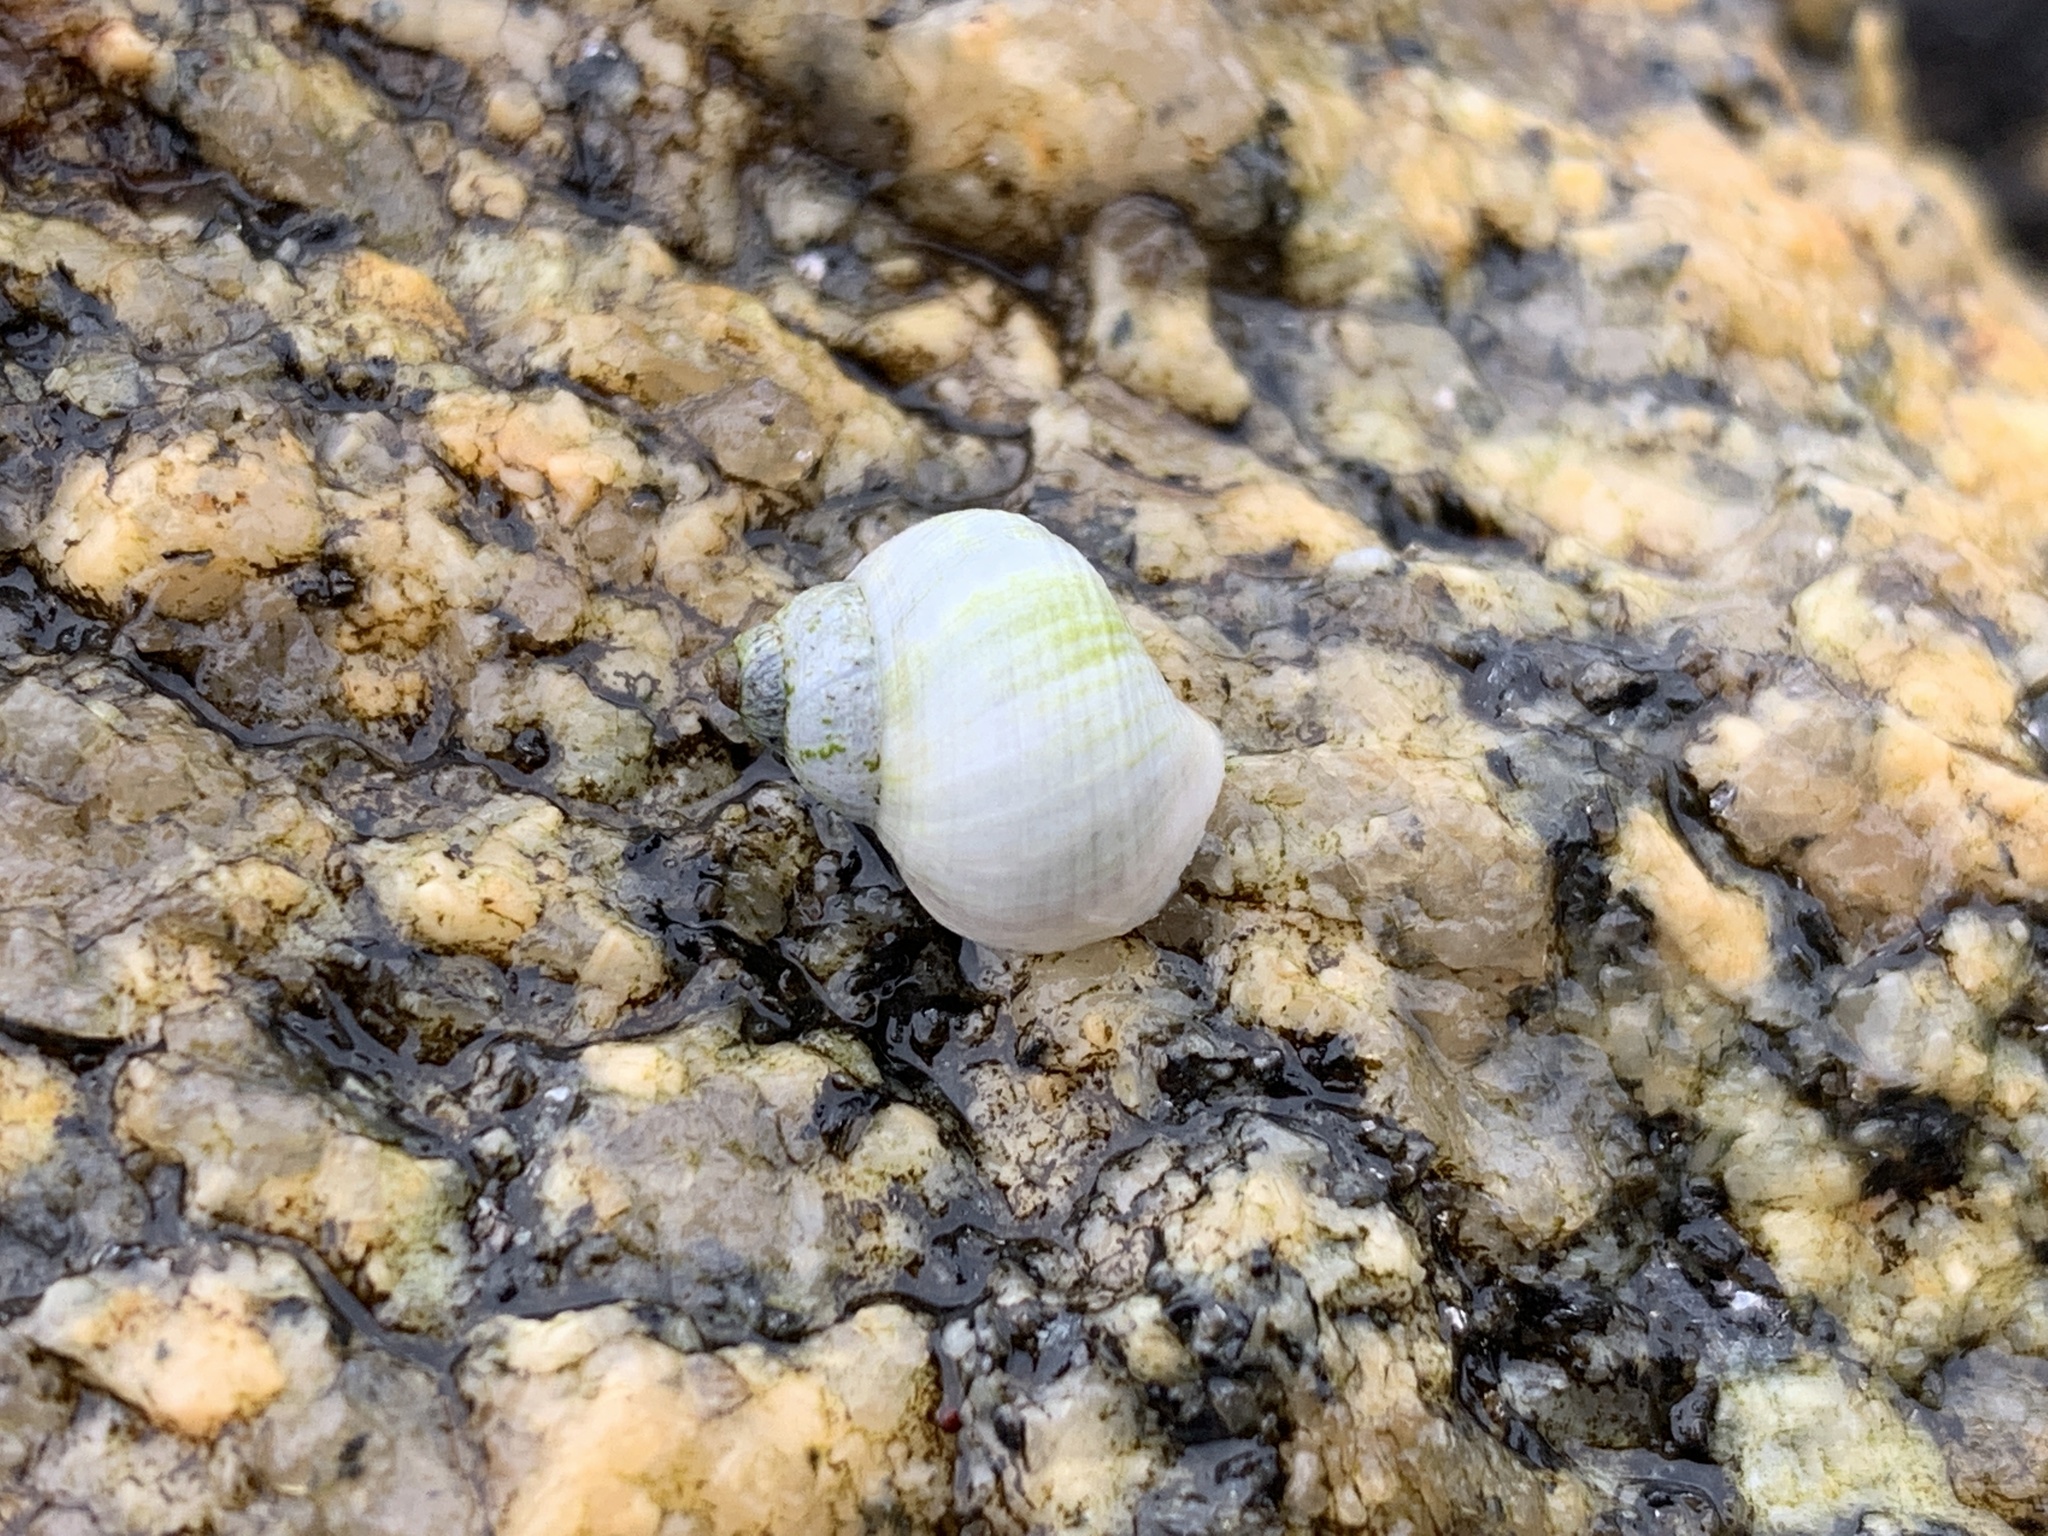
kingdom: Animalia
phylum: Mollusca
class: Gastropoda
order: Littorinimorpha
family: Littorinidae
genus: Littorina
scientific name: Littorina saxatilis
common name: Black-lined periwinkle
